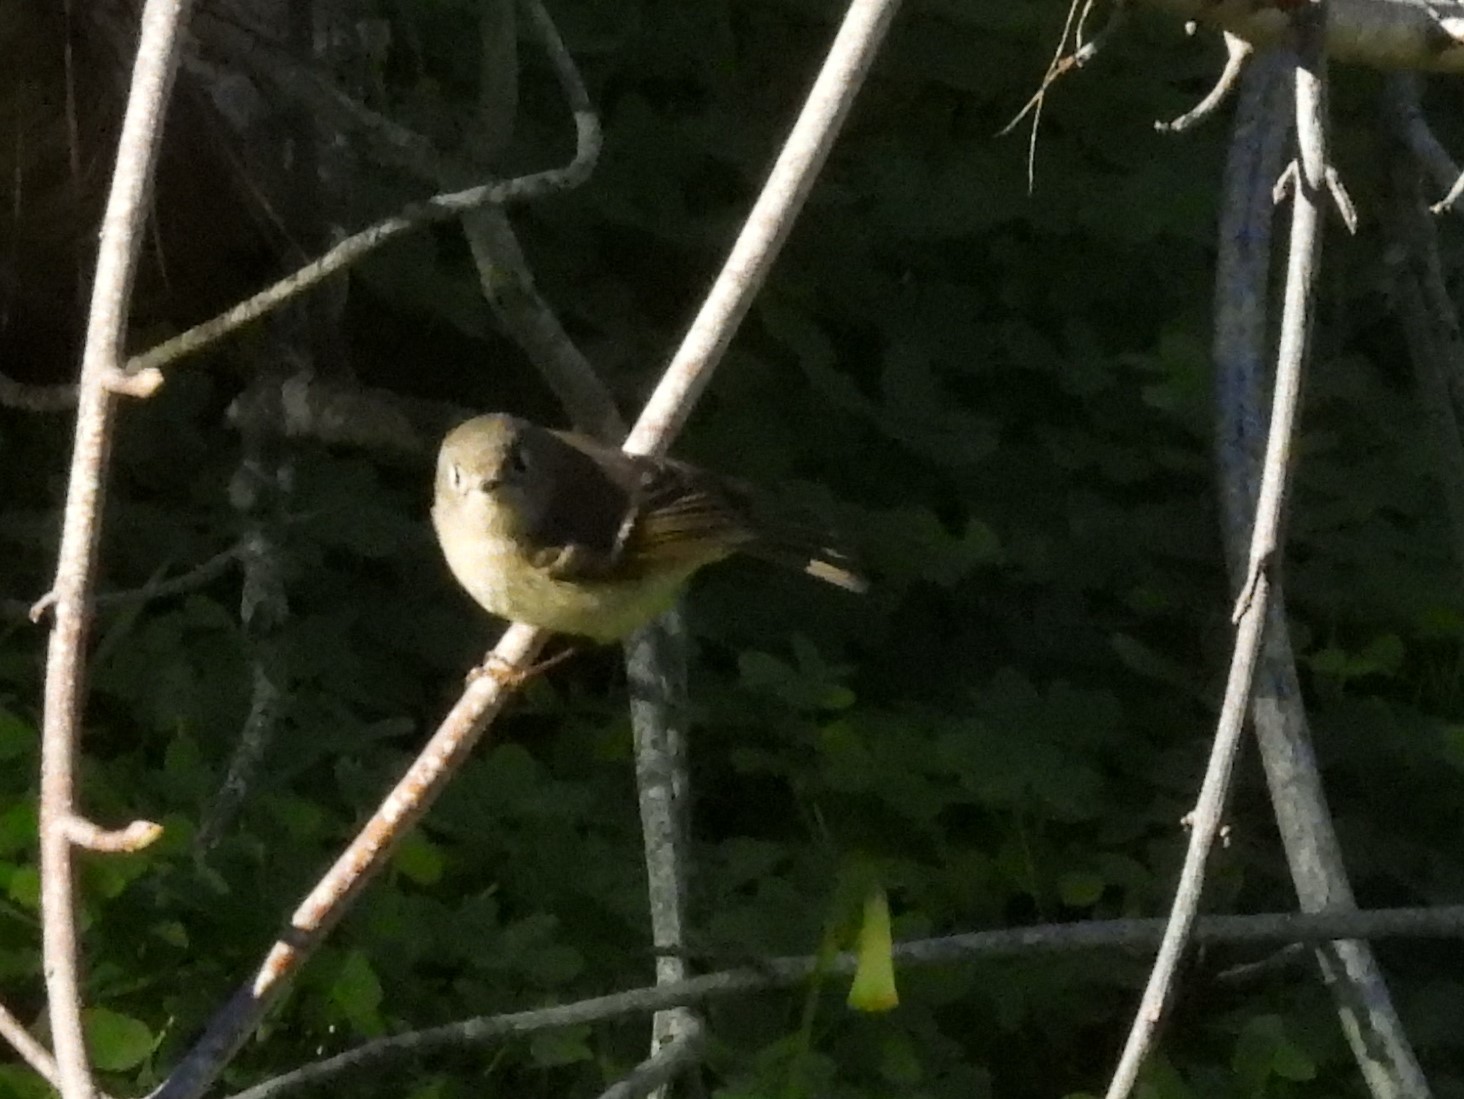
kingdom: Animalia
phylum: Chordata
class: Aves
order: Passeriformes
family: Regulidae
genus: Regulus
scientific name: Regulus calendula
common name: Ruby-crowned kinglet
